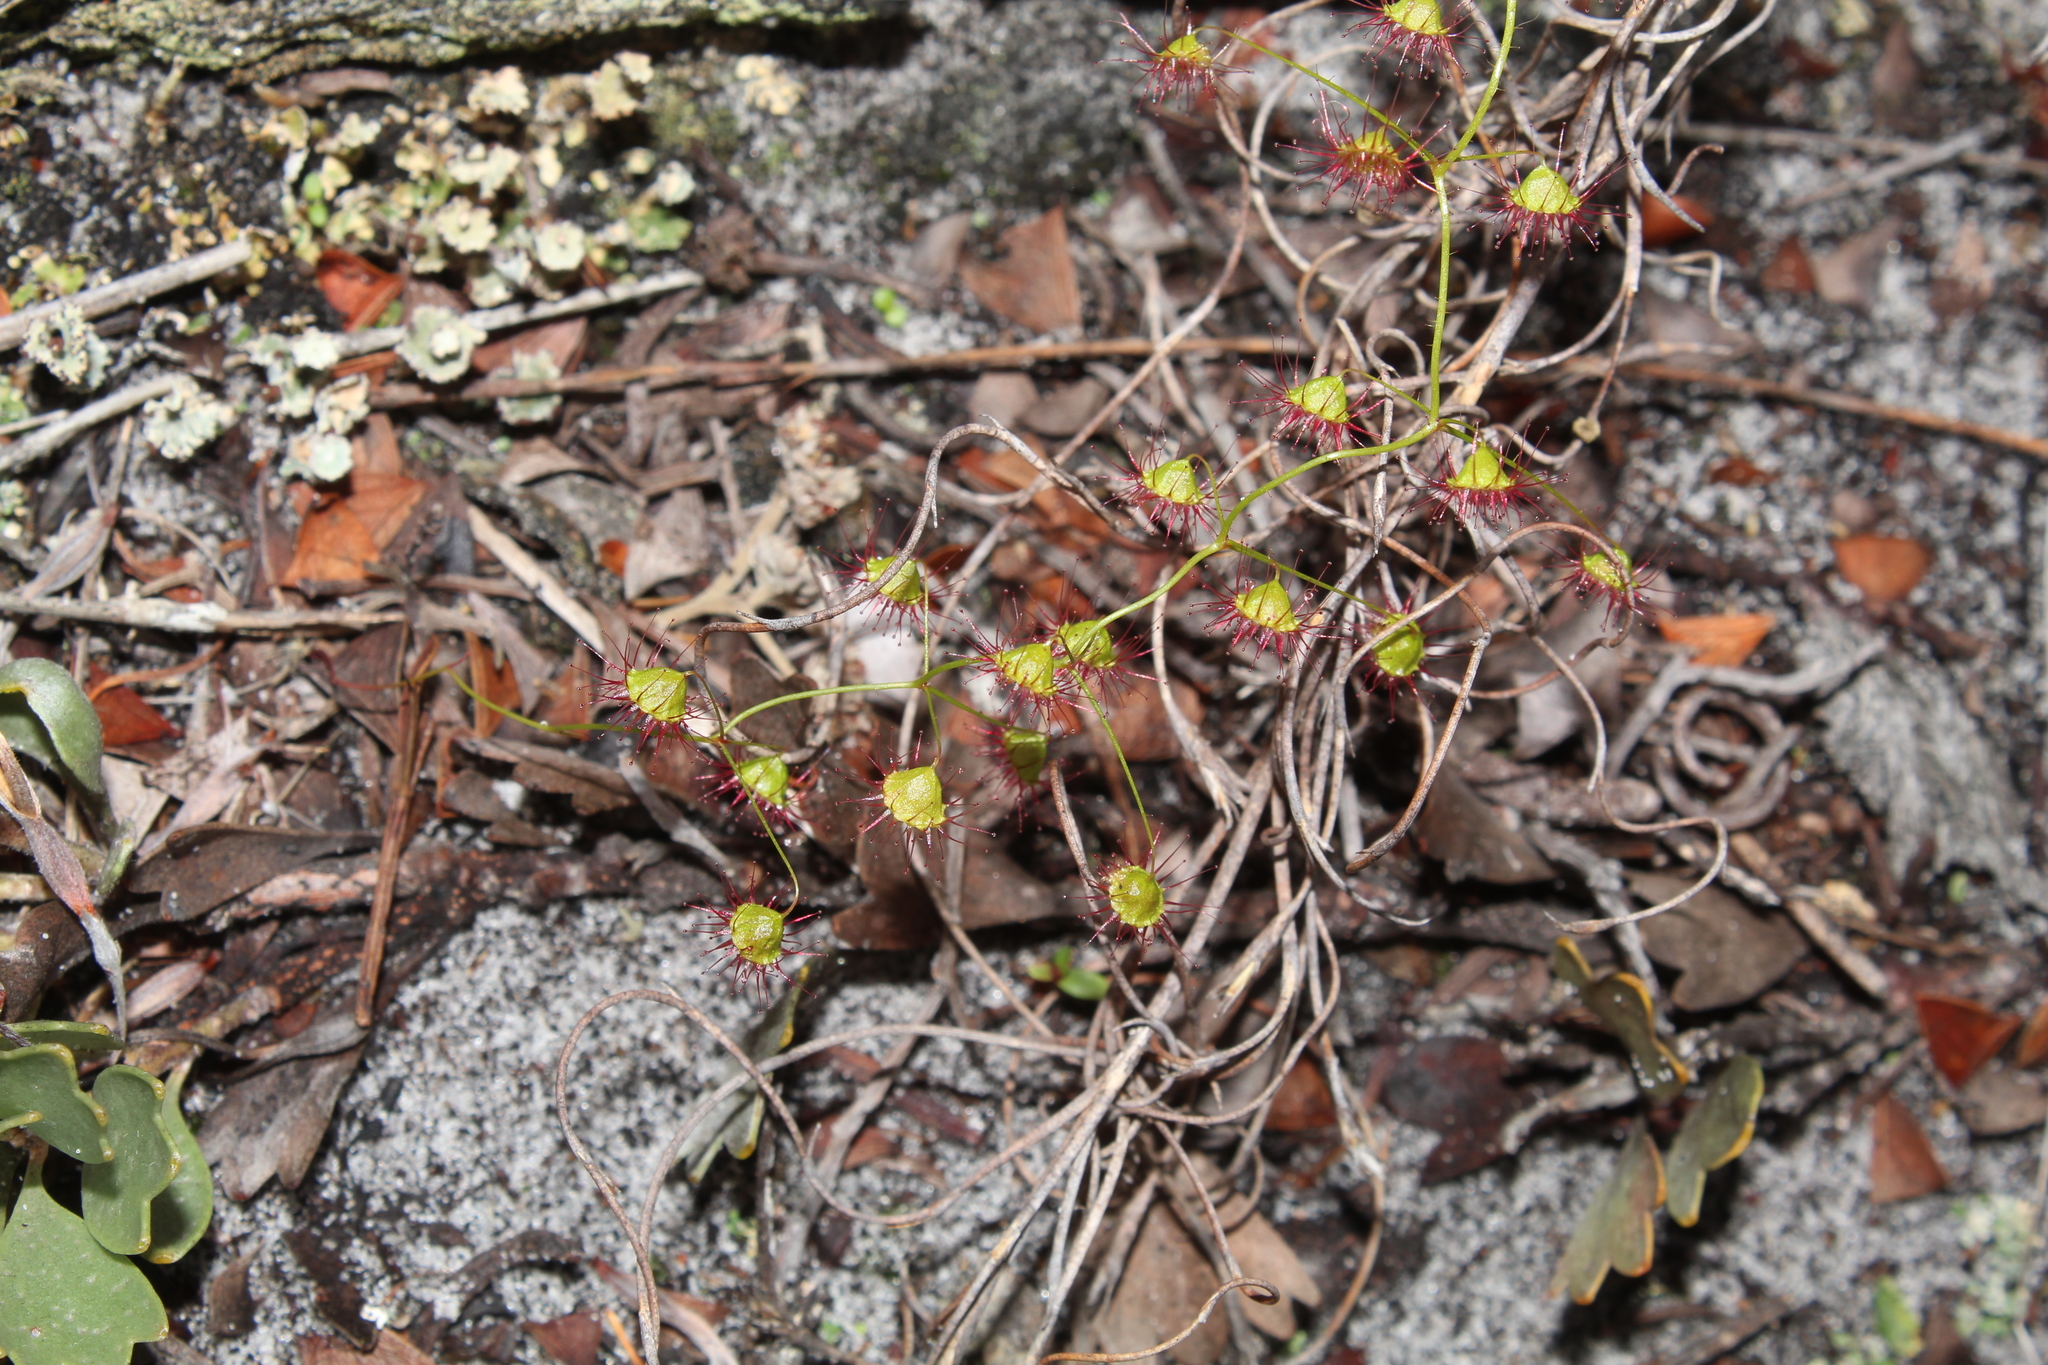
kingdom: Plantae
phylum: Tracheophyta
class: Magnoliopsida
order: Caryophyllales
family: Droseraceae
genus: Drosera
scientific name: Drosera macrantha
